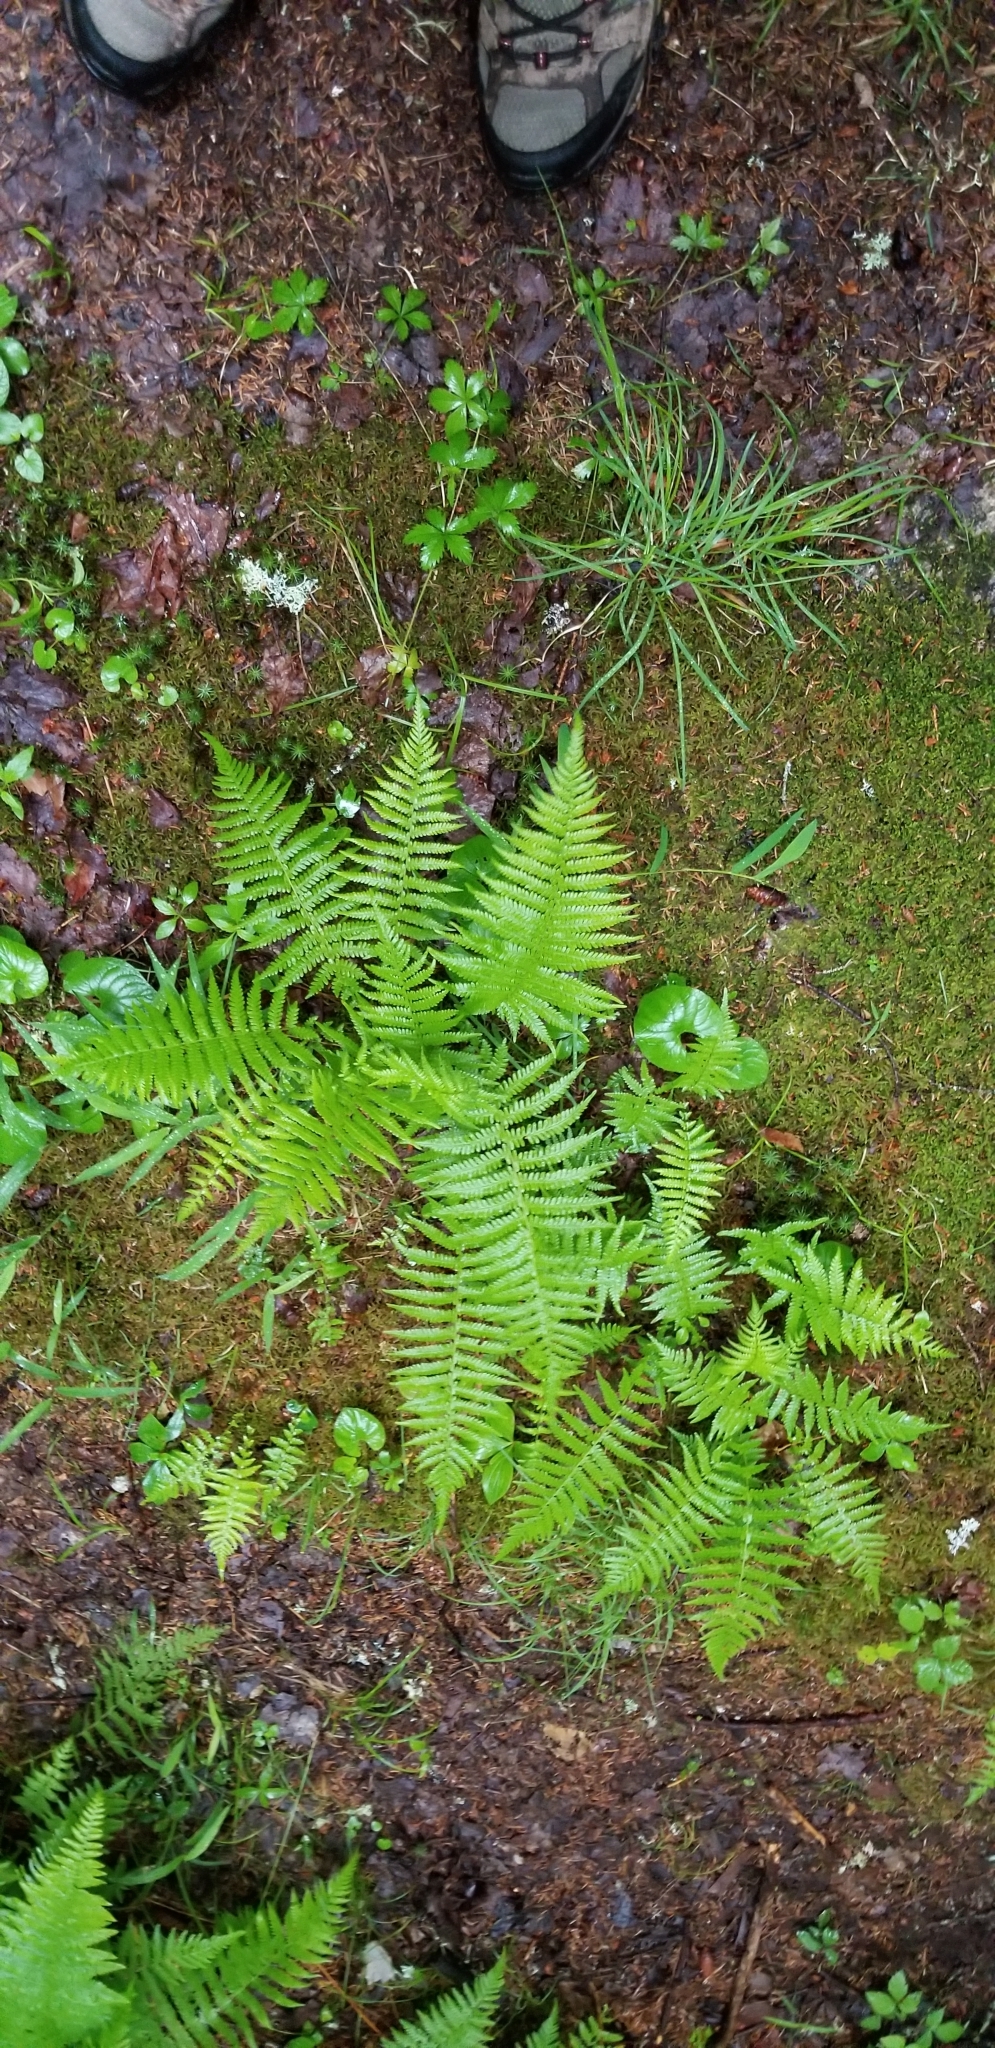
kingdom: Plantae
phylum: Tracheophyta
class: Polypodiopsida
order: Polypodiales
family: Thelypteridaceae
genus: Amauropelta
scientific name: Amauropelta noveboracensis
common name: New york fern
